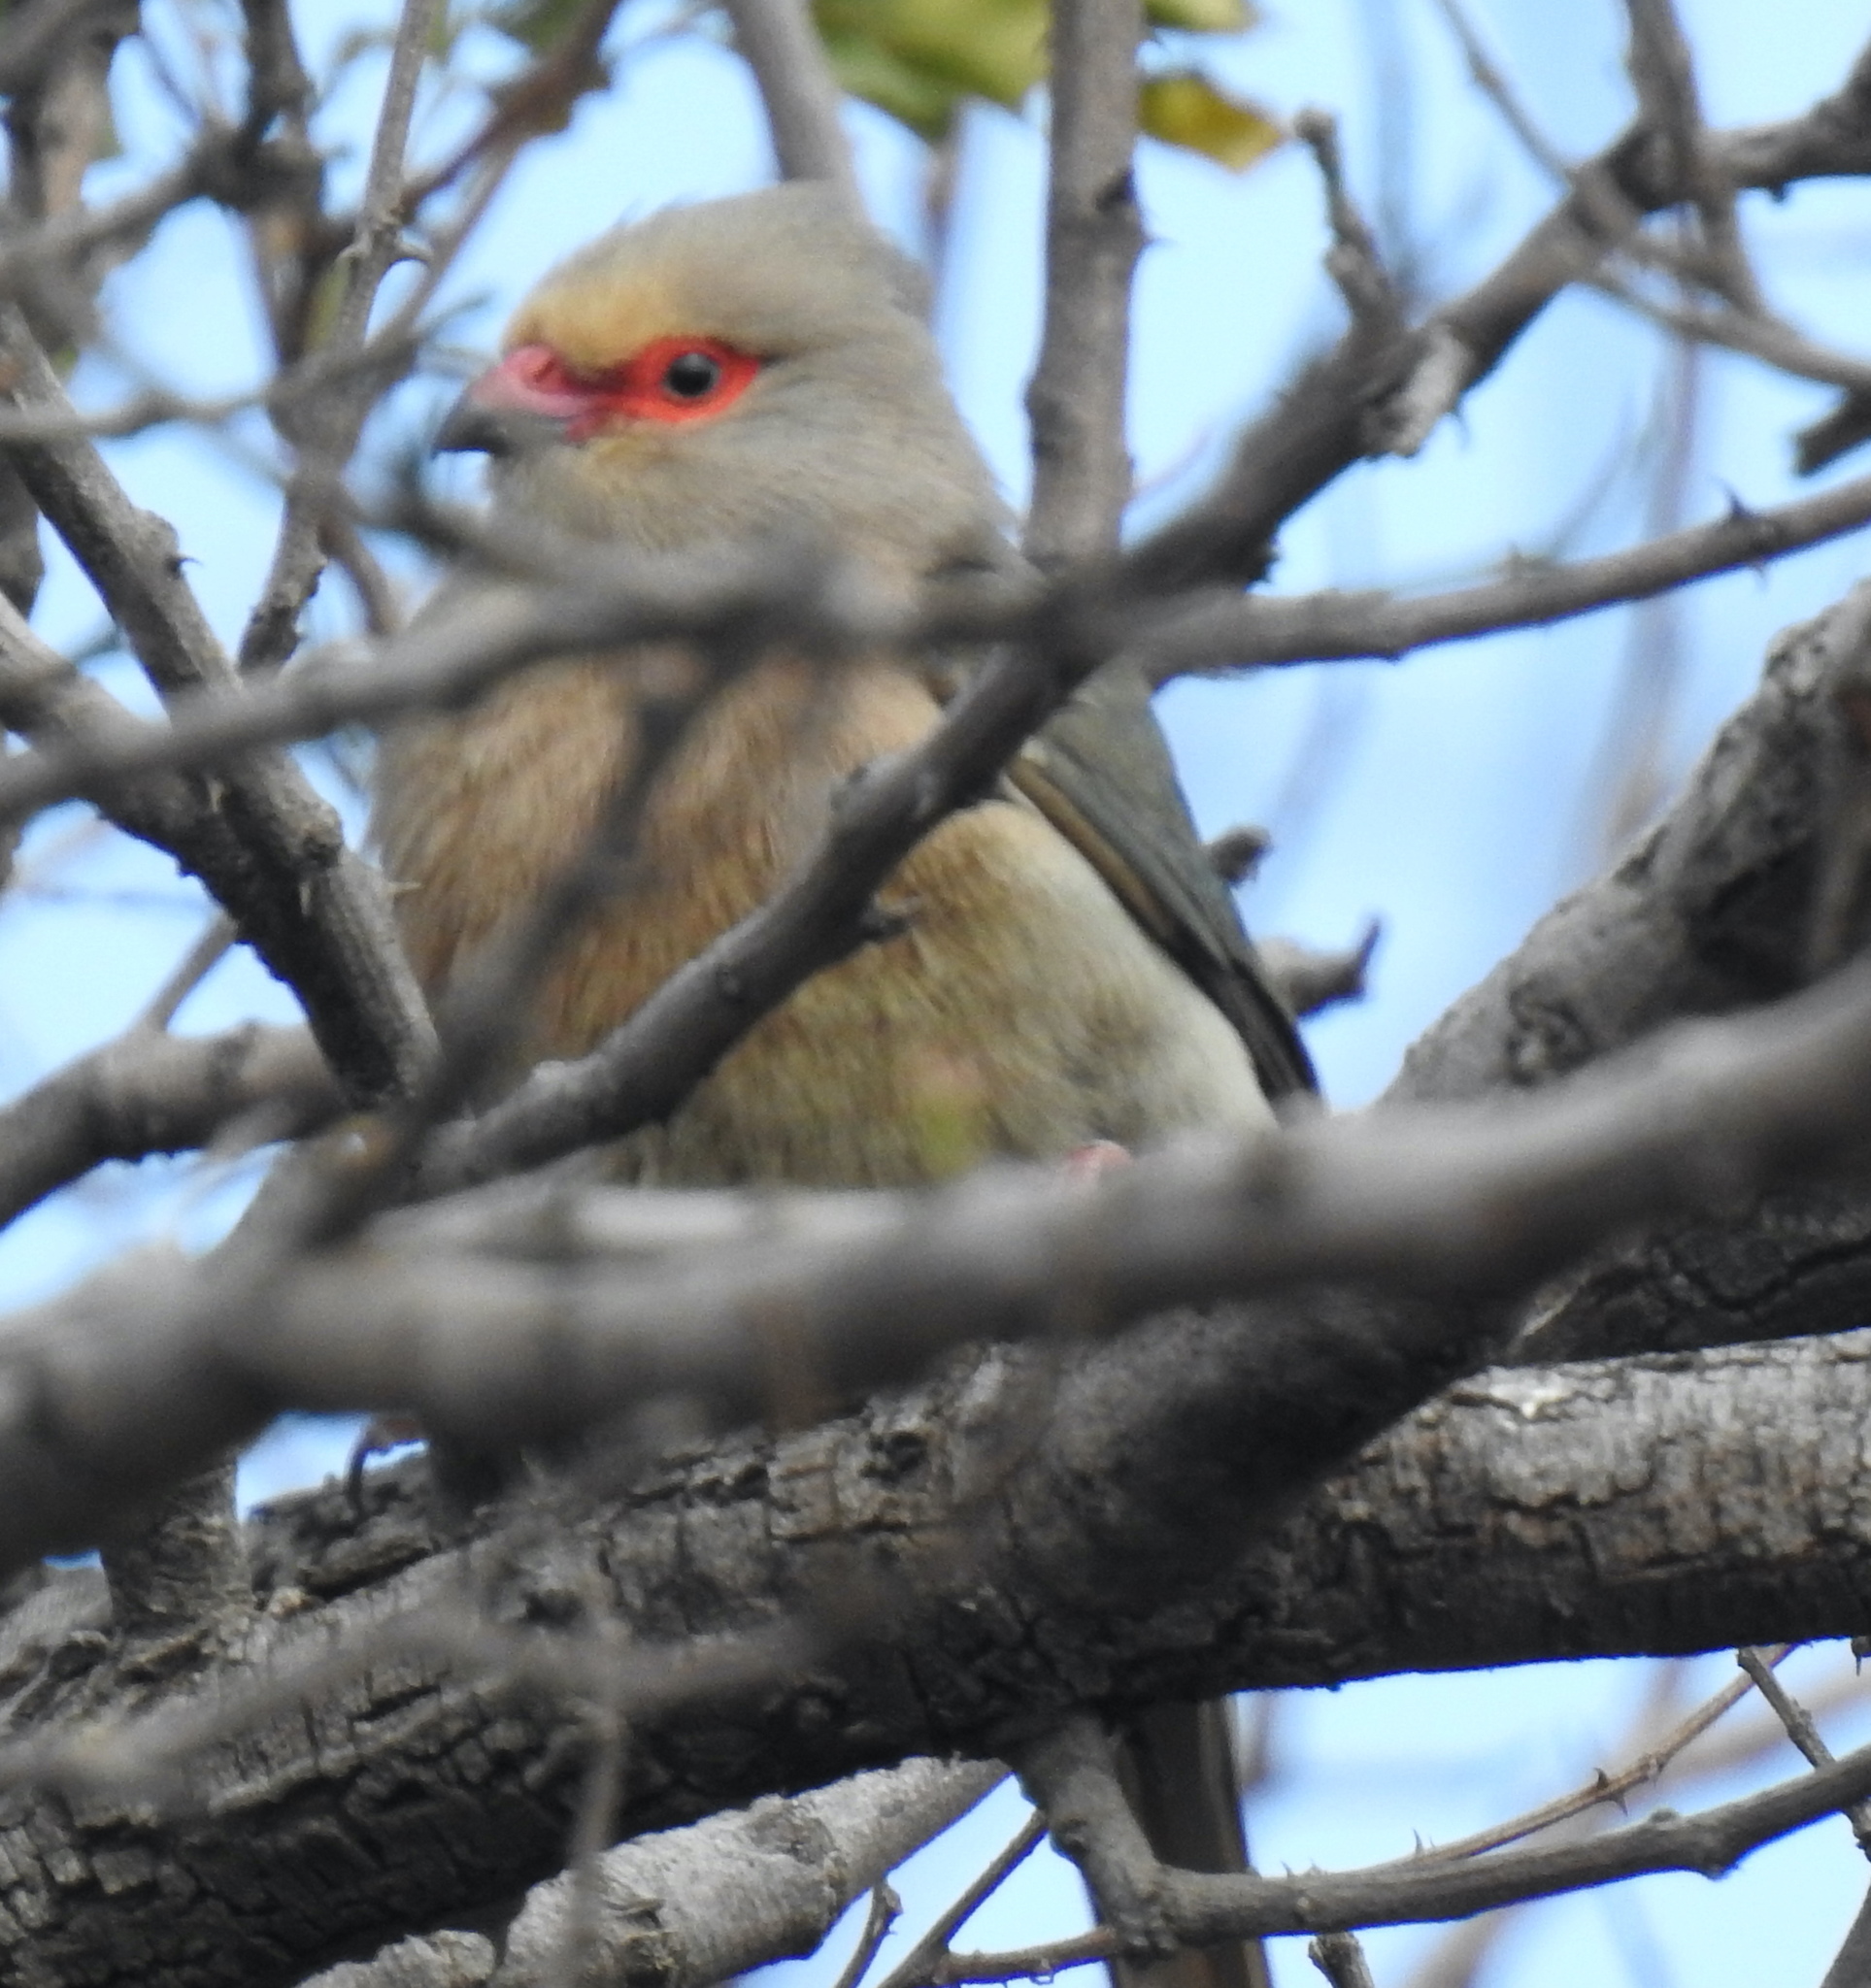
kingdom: Animalia
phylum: Chordata
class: Aves
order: Coliiformes
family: Coliidae
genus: Urocolius
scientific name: Urocolius indicus
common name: Red-faced mousebird
